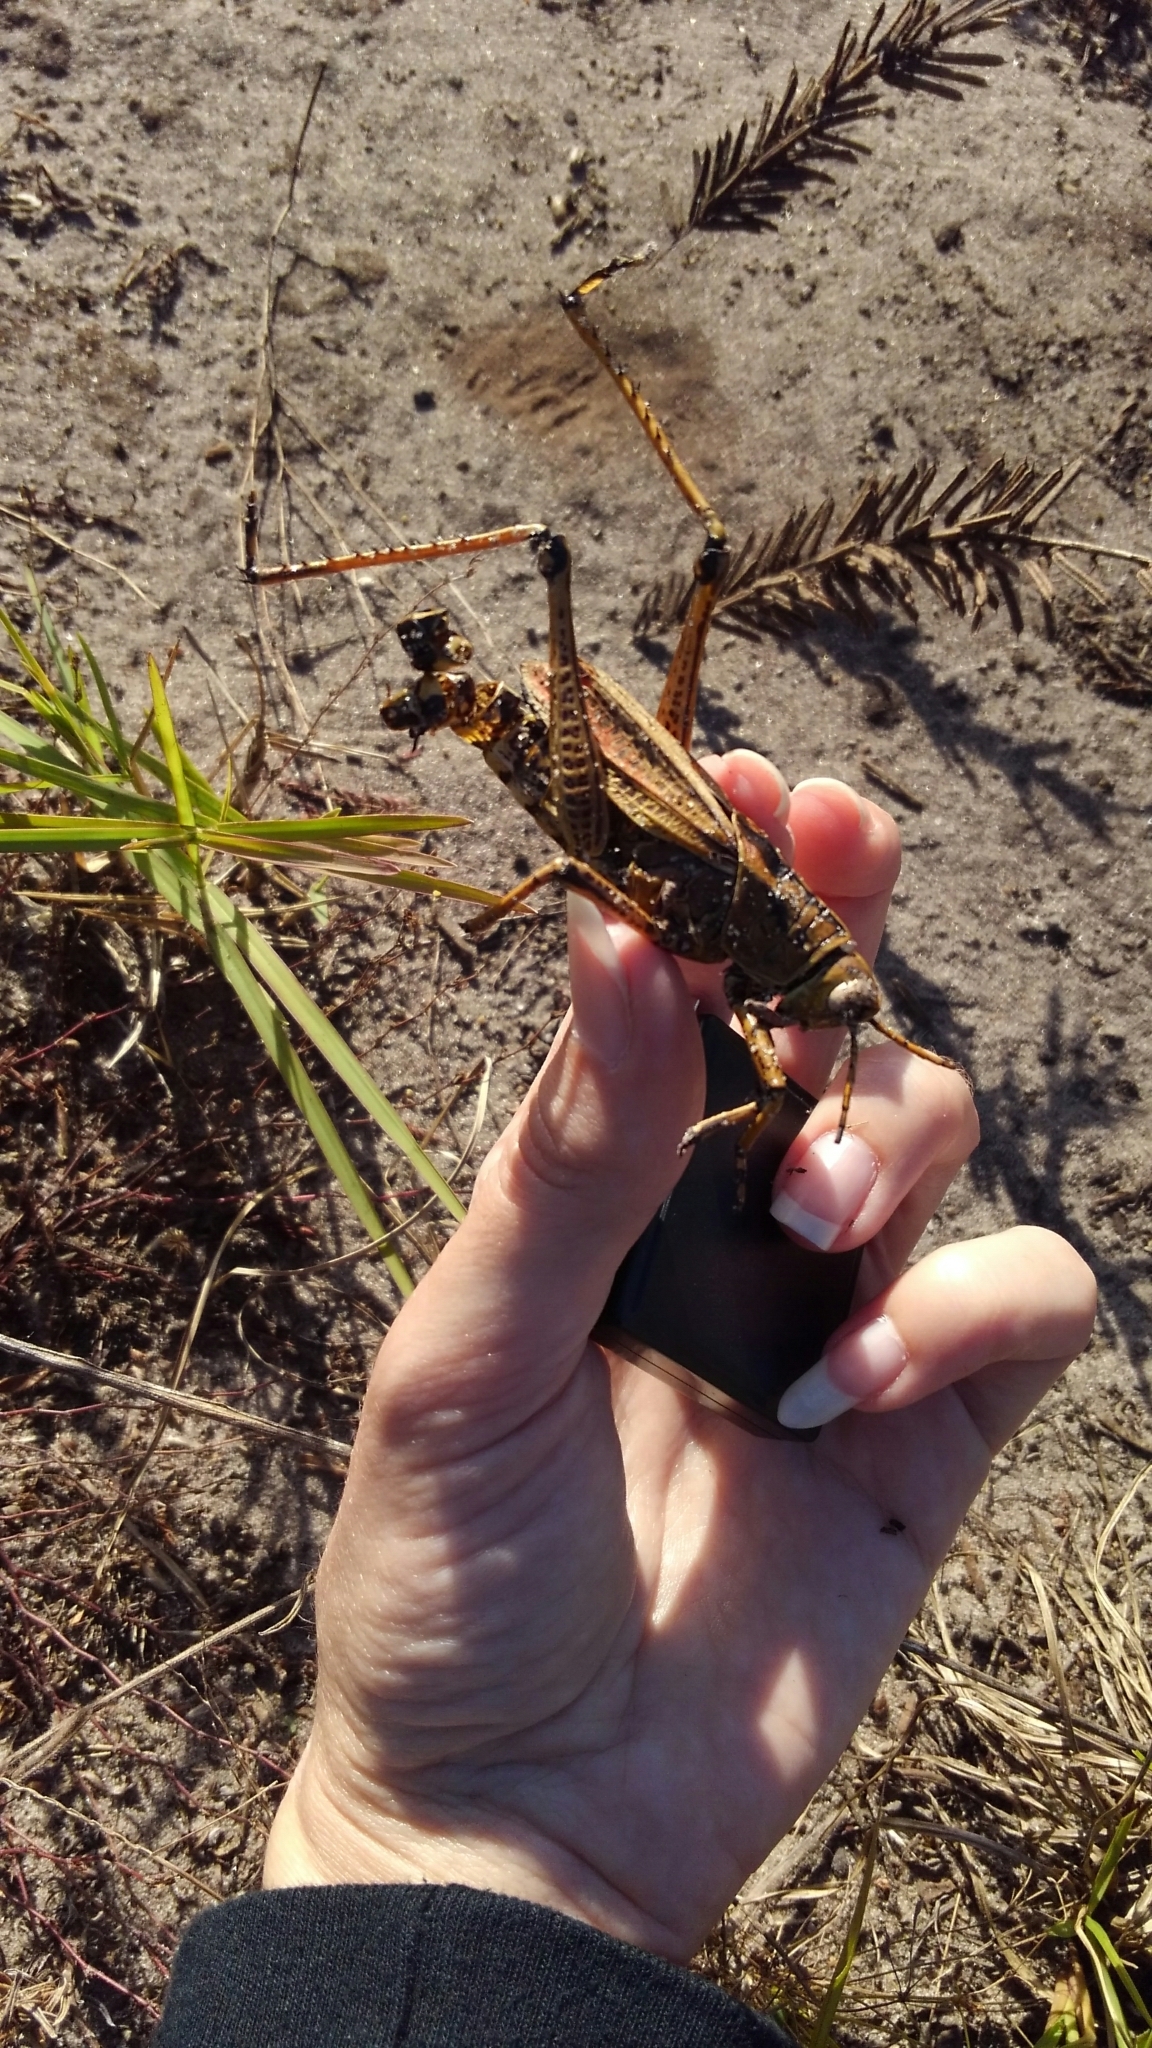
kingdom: Animalia
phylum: Arthropoda
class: Insecta
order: Orthoptera
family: Romaleidae
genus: Romalea
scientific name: Romalea microptera
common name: Eastern lubber grasshopper
